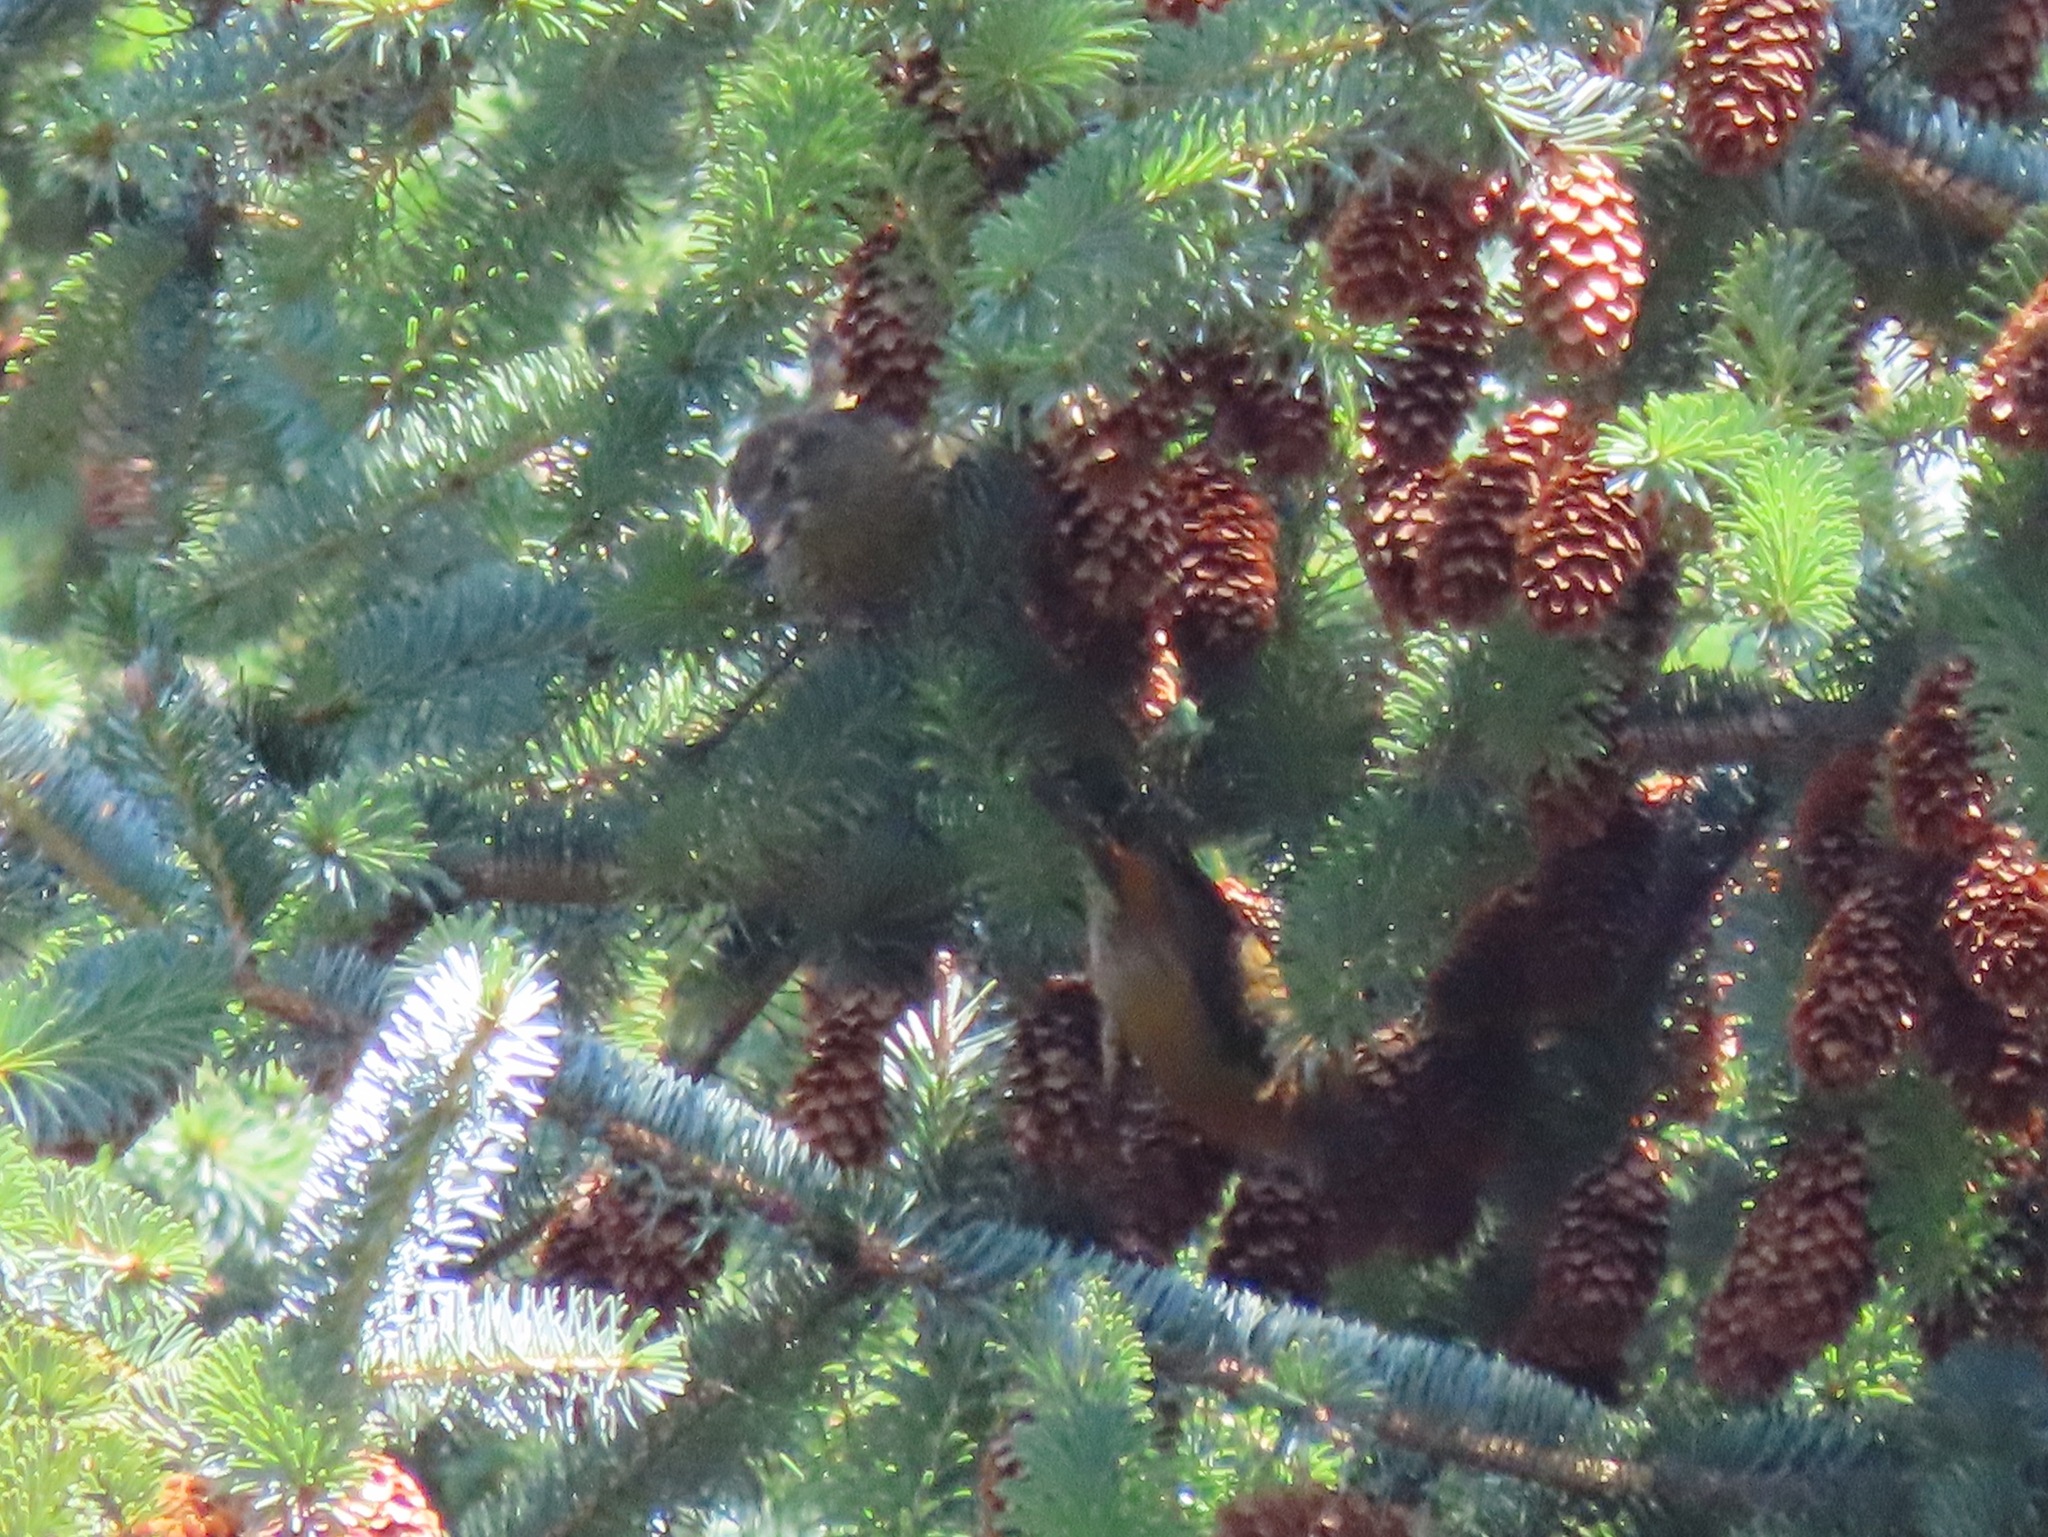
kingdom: Animalia
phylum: Chordata
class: Aves
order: Passeriformes
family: Fringillidae
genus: Loxia
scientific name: Loxia curvirostra
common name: Red crossbill
